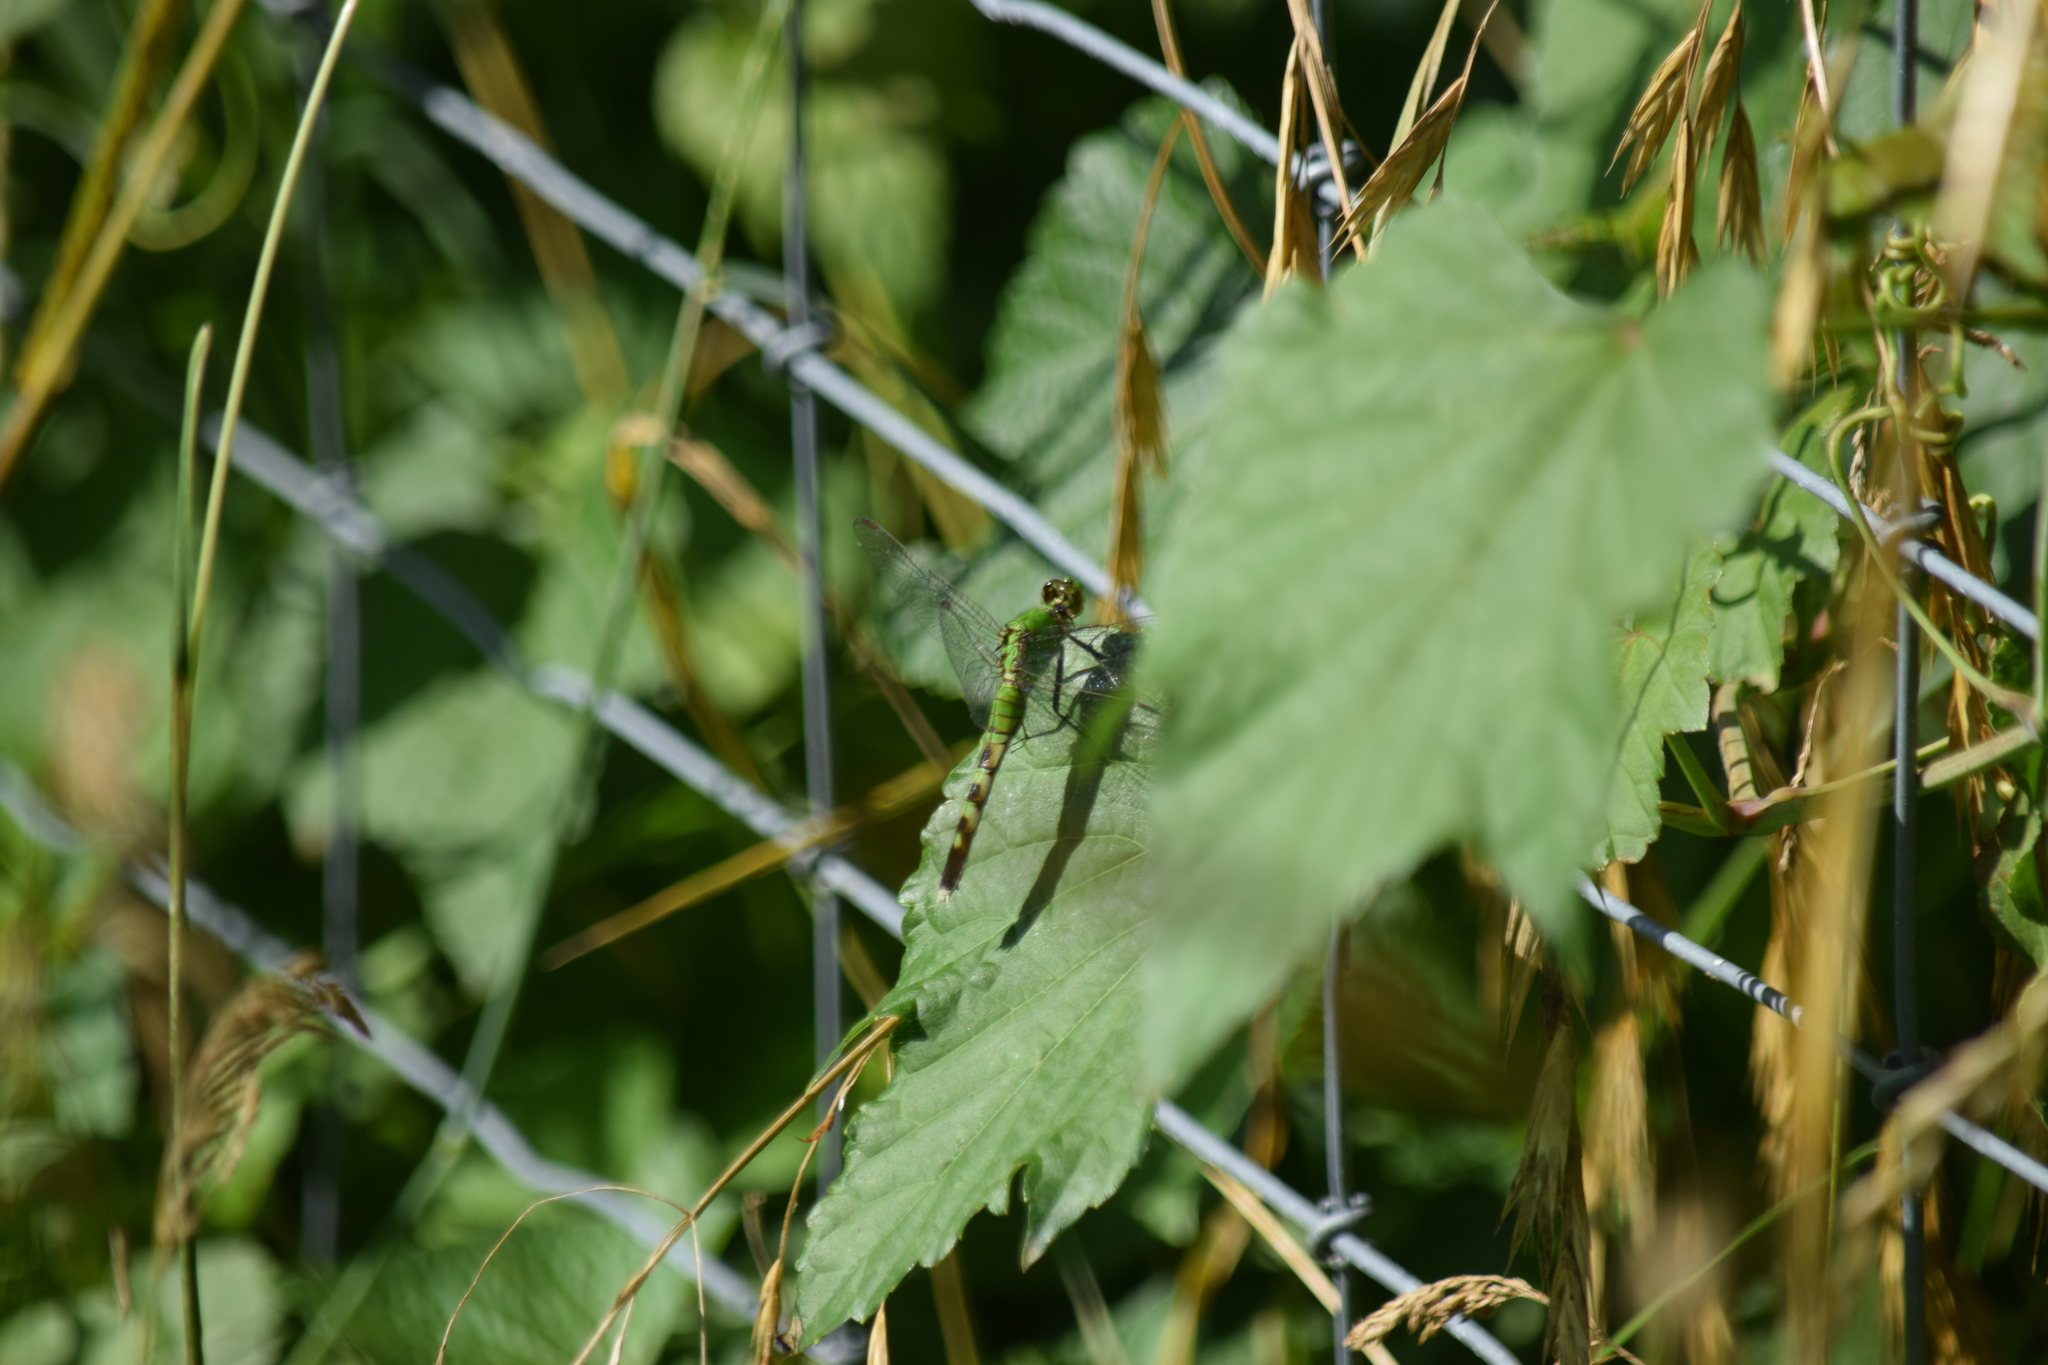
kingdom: Animalia
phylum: Arthropoda
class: Insecta
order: Odonata
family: Libellulidae
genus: Erythemis
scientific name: Erythemis simplicicollis
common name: Eastern pondhawk
